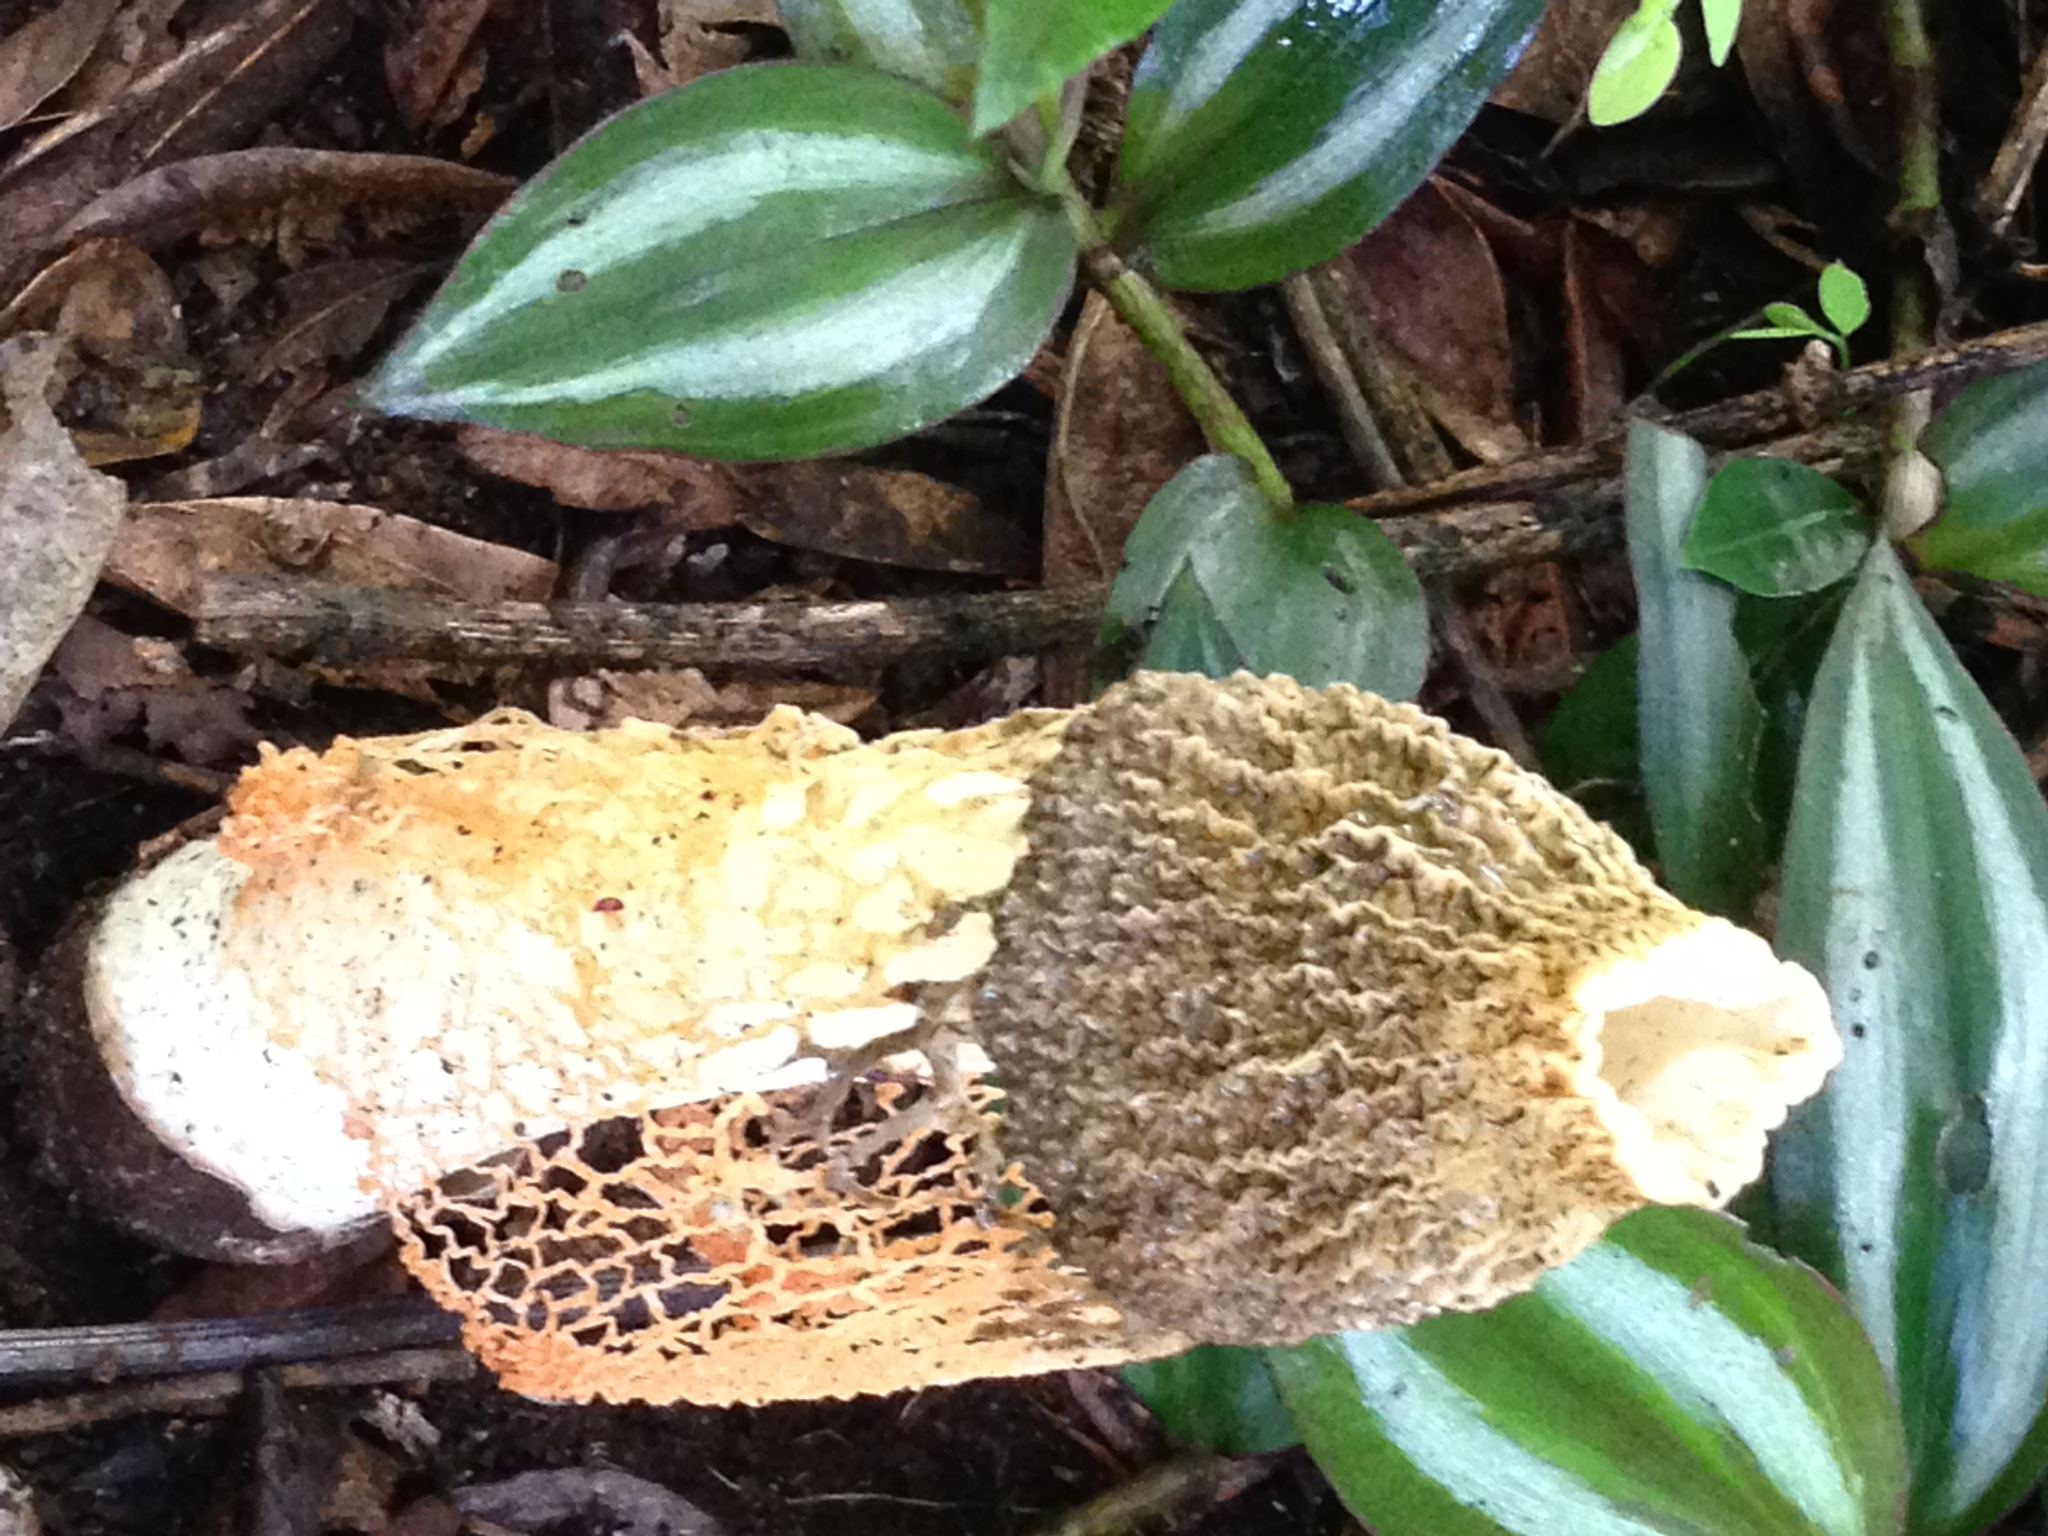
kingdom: Fungi
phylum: Basidiomycota
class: Agaricomycetes
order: Phallales
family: Phallaceae
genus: Phallus
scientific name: Phallus indusiatus
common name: Bridal veil stinkhorn
